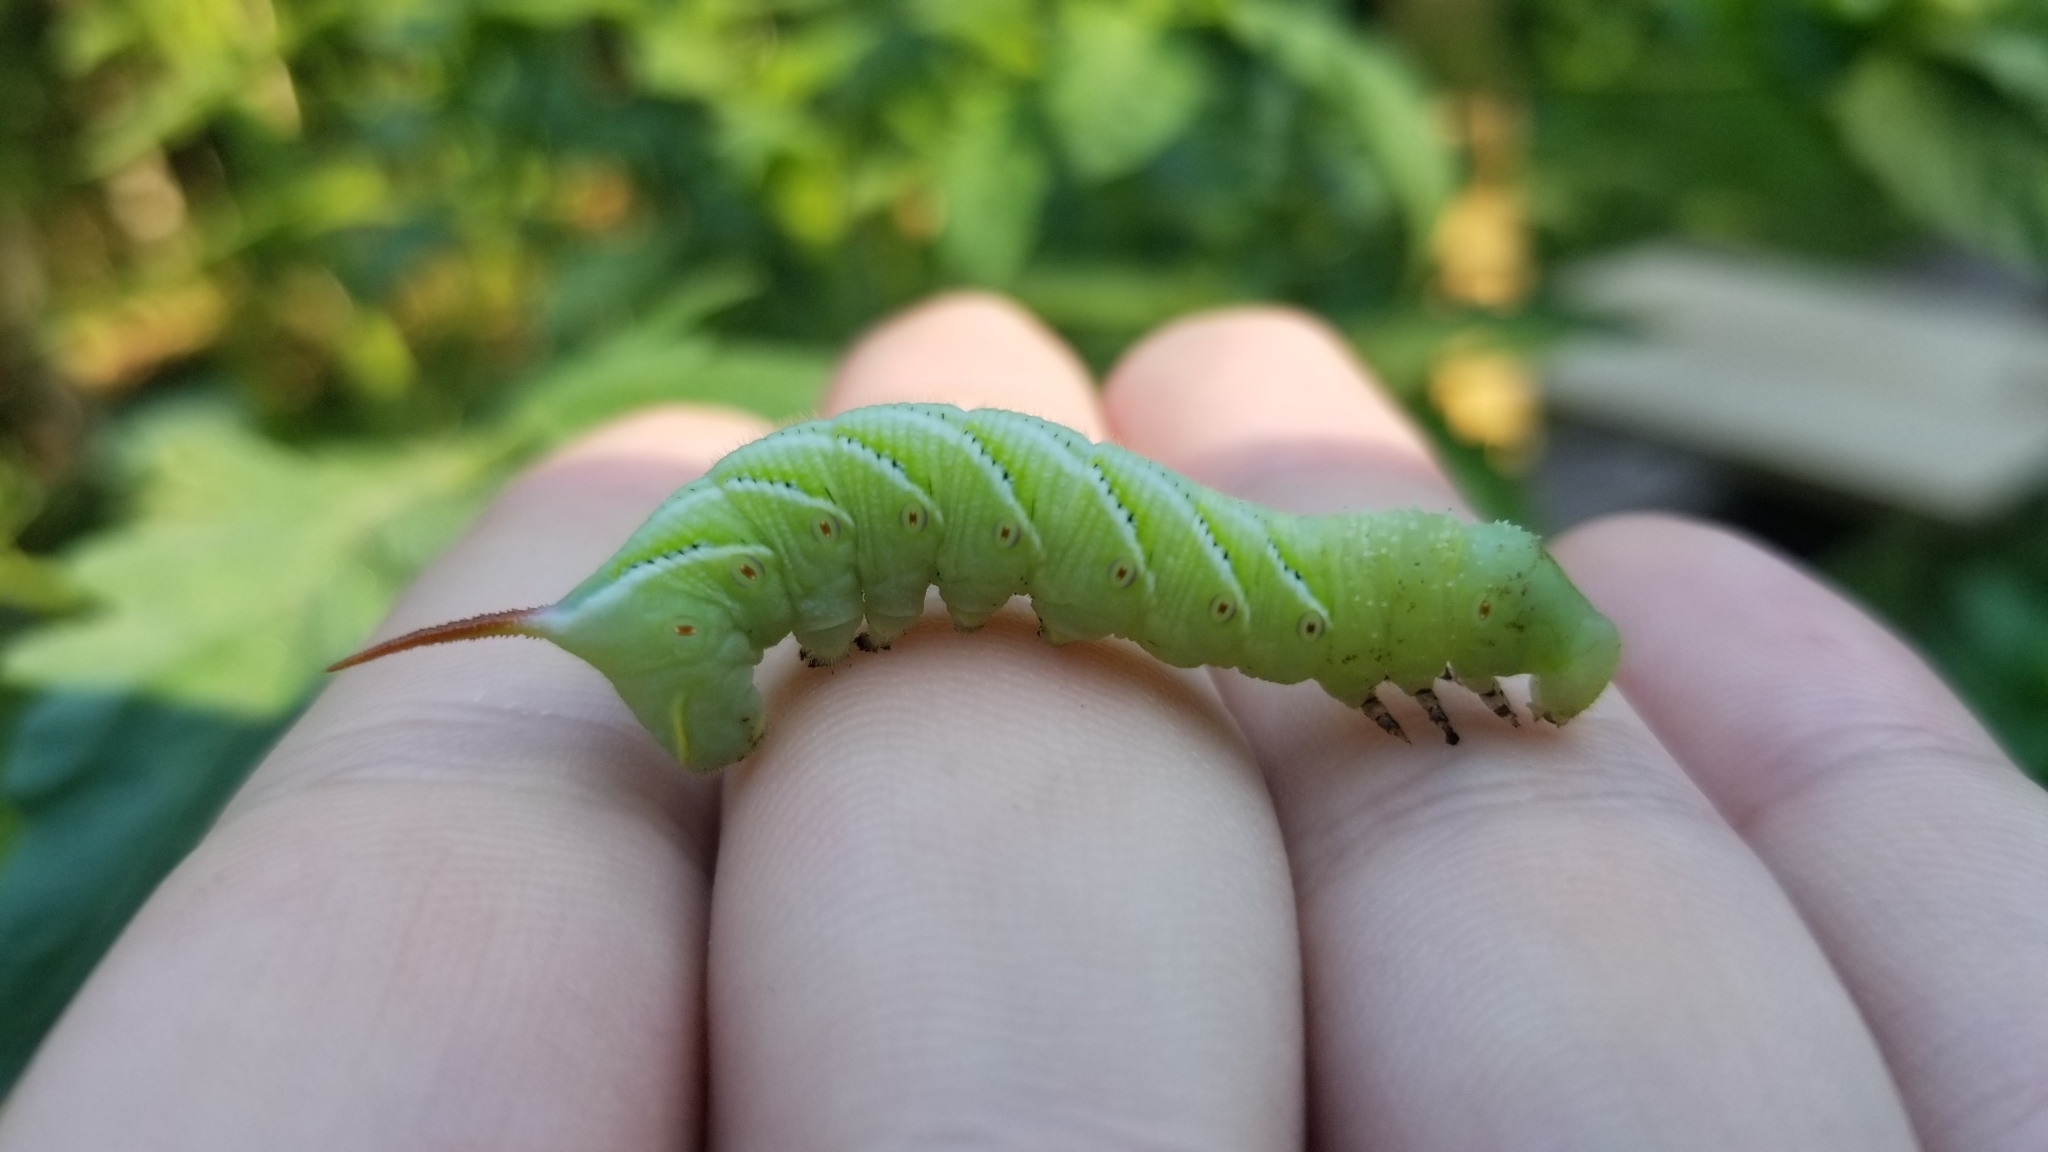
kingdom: Animalia
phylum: Arthropoda
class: Insecta
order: Lepidoptera
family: Sphingidae
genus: Manduca
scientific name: Manduca sexta
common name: Carolina sphinx
